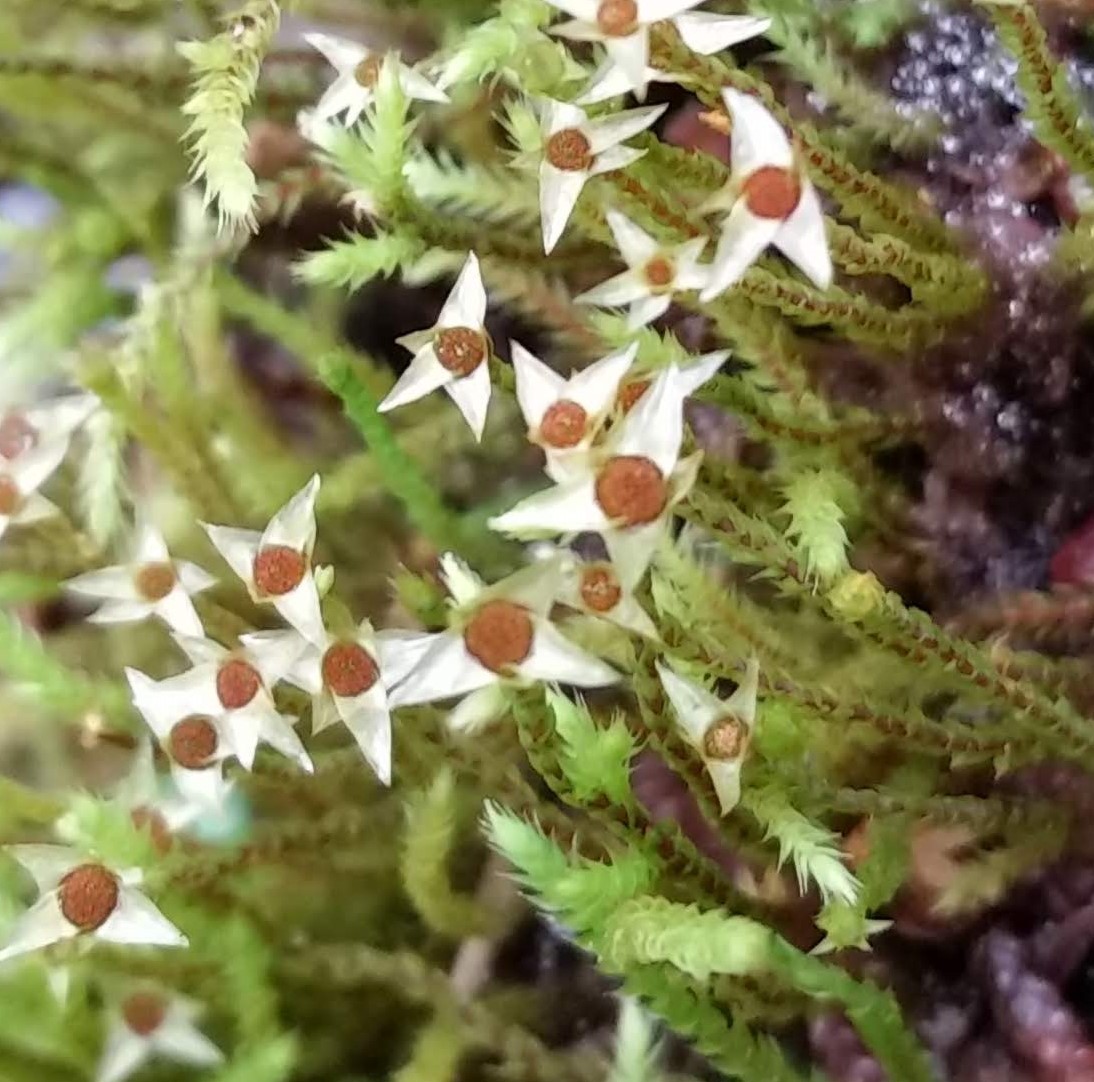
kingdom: Plantae
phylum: Bryophyta
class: Bryopsida
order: Bartramiales
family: Bartramiaceae
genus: Philonotis
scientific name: Philonotis fontana
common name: Fountain apple-moss
